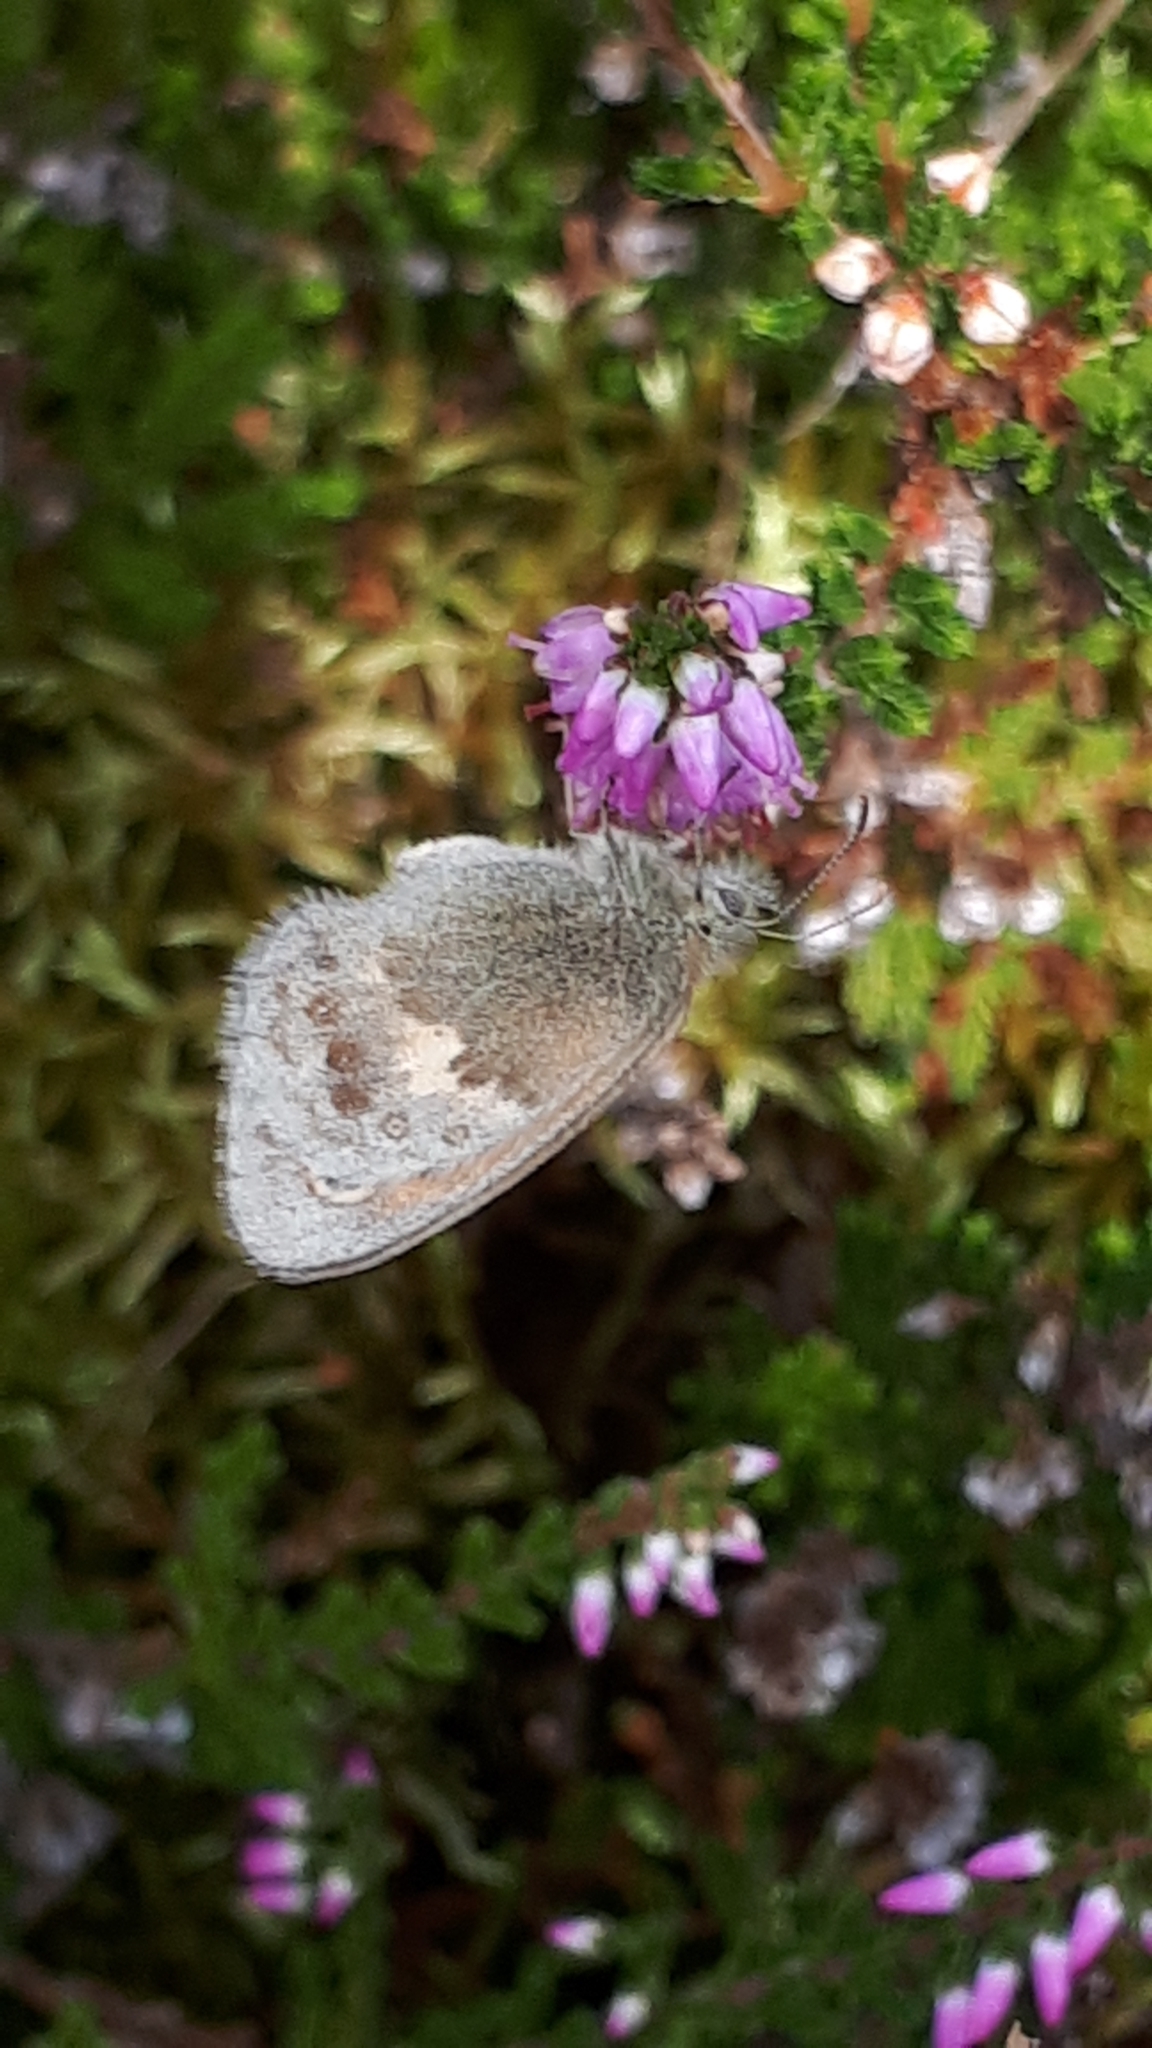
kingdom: Animalia
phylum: Arthropoda
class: Insecta
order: Lepidoptera
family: Nymphalidae
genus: Coenonympha
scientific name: Coenonympha pamphilus
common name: Small heath
